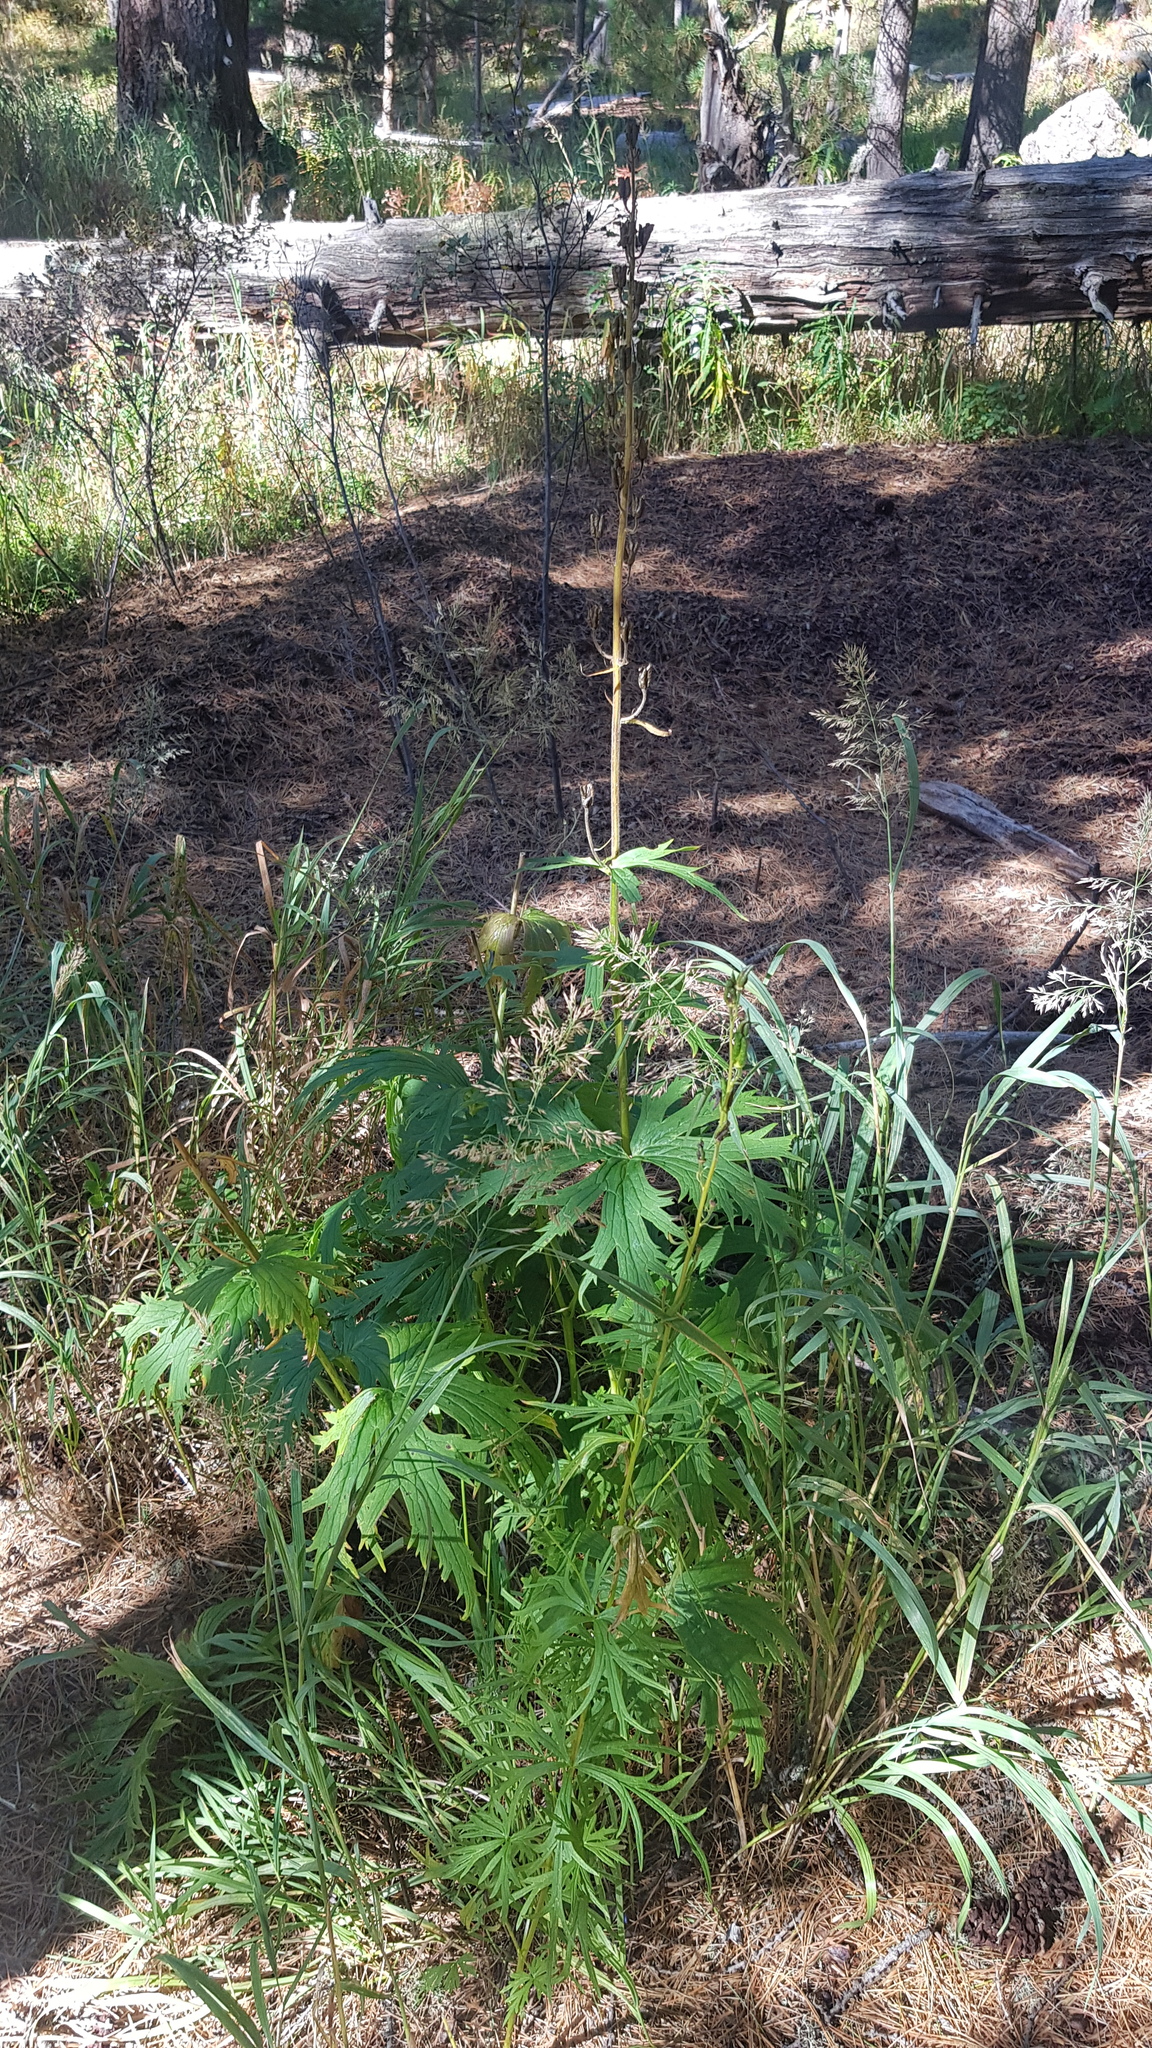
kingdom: Plantae
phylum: Tracheophyta
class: Magnoliopsida
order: Ranunculales
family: Ranunculaceae
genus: Aconitum
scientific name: Aconitum septentrionale
